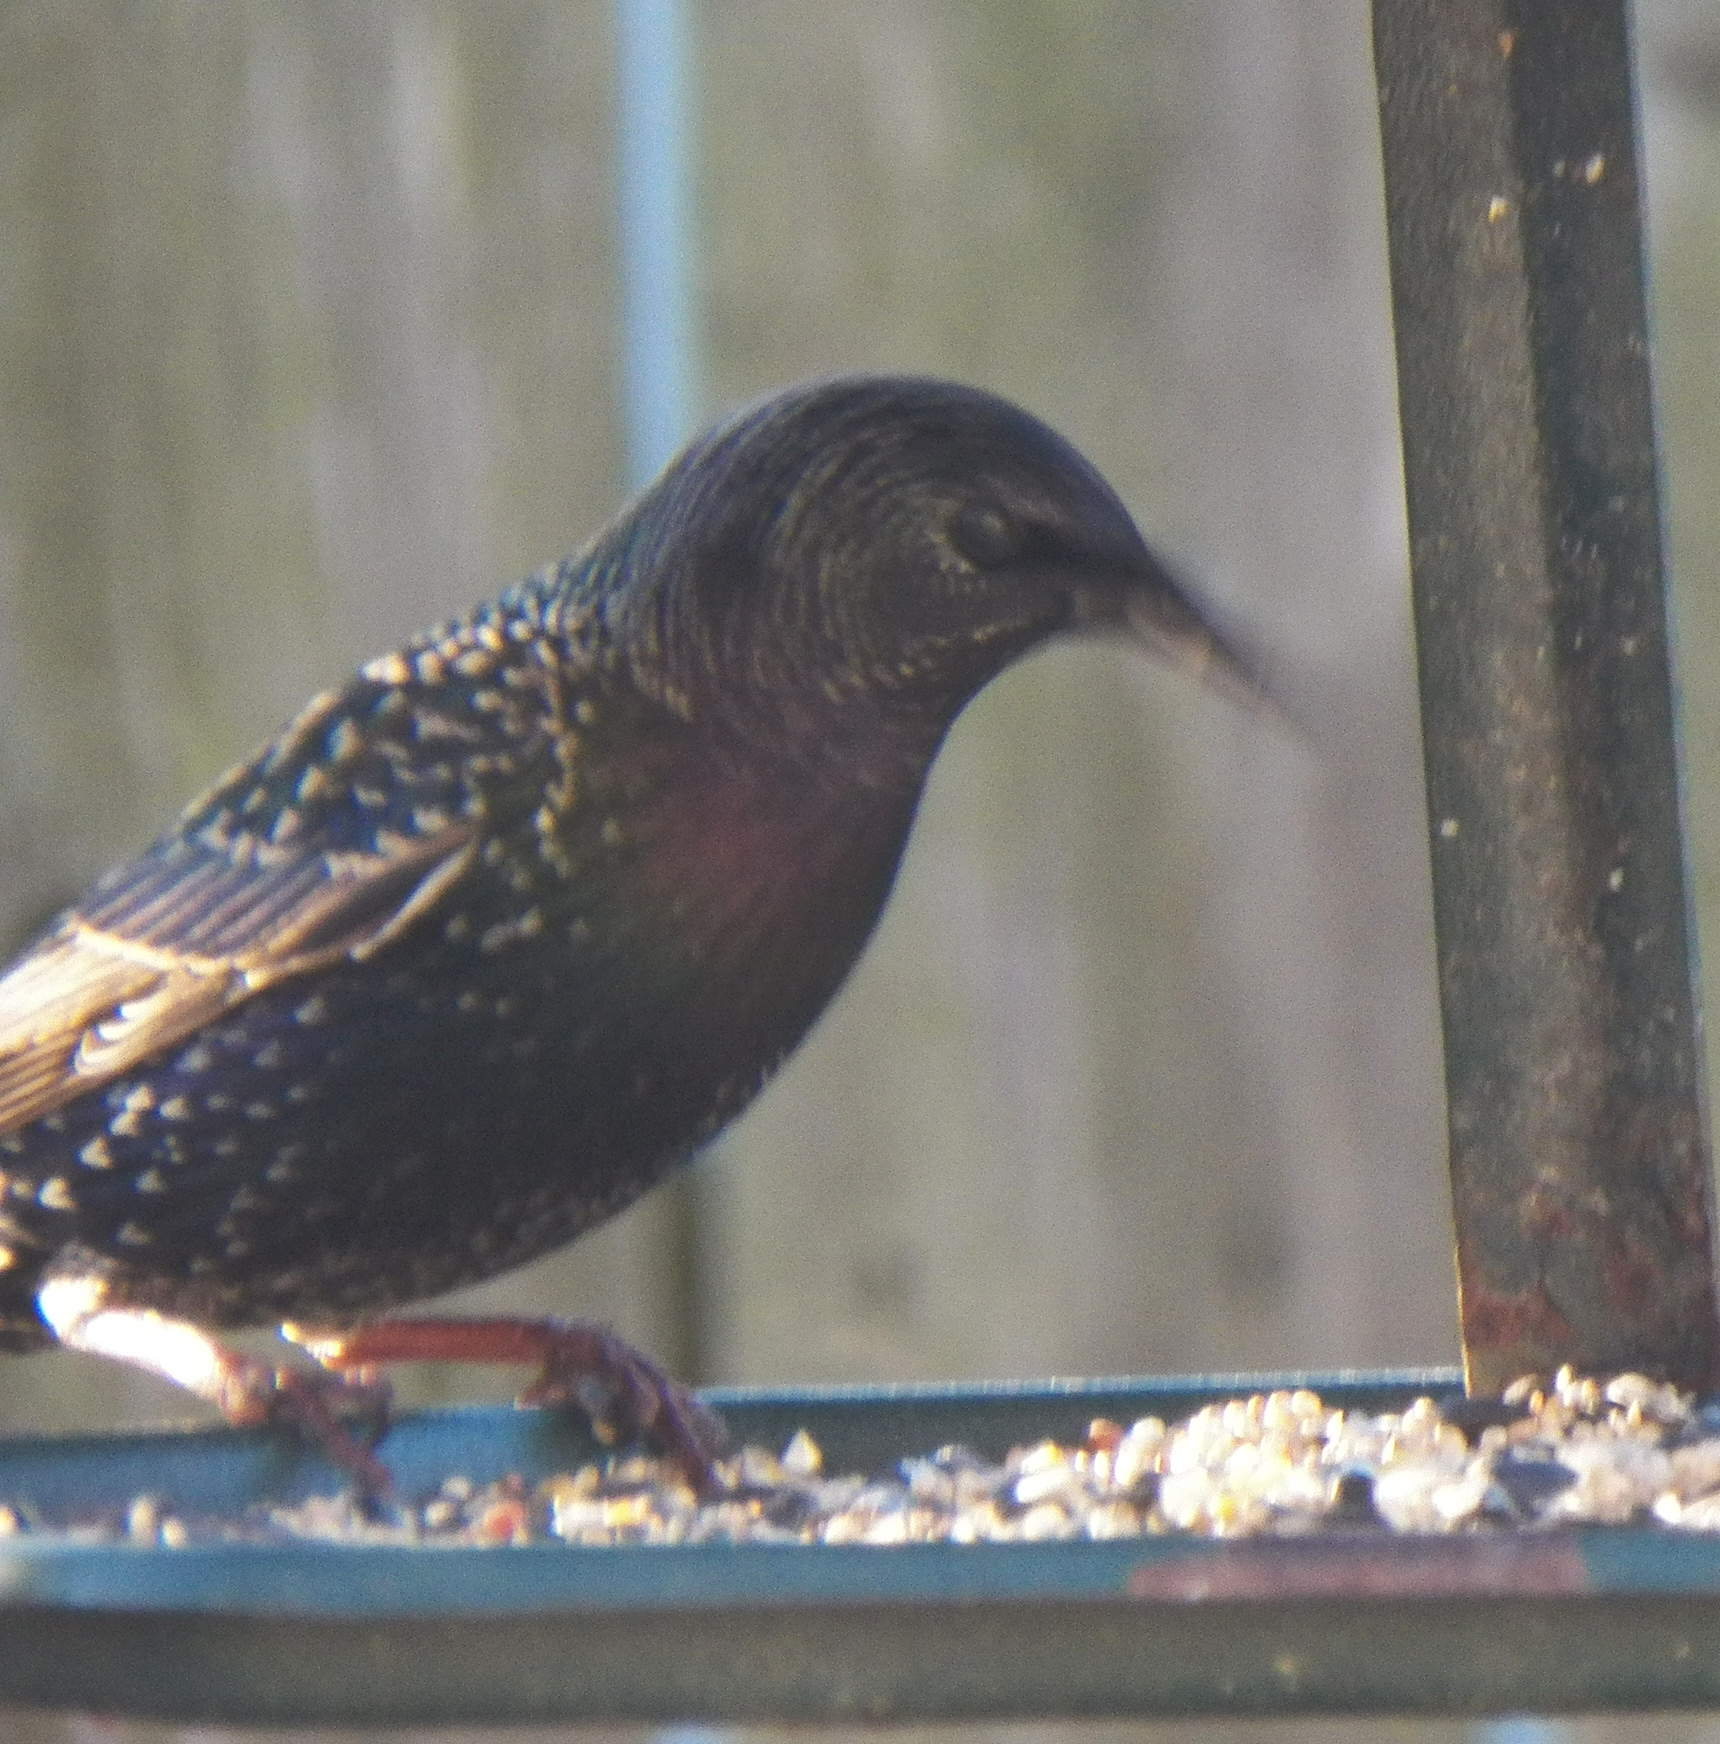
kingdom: Animalia
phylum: Chordata
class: Aves
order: Passeriformes
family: Sturnidae
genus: Sturnus
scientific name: Sturnus vulgaris
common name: Common starling
